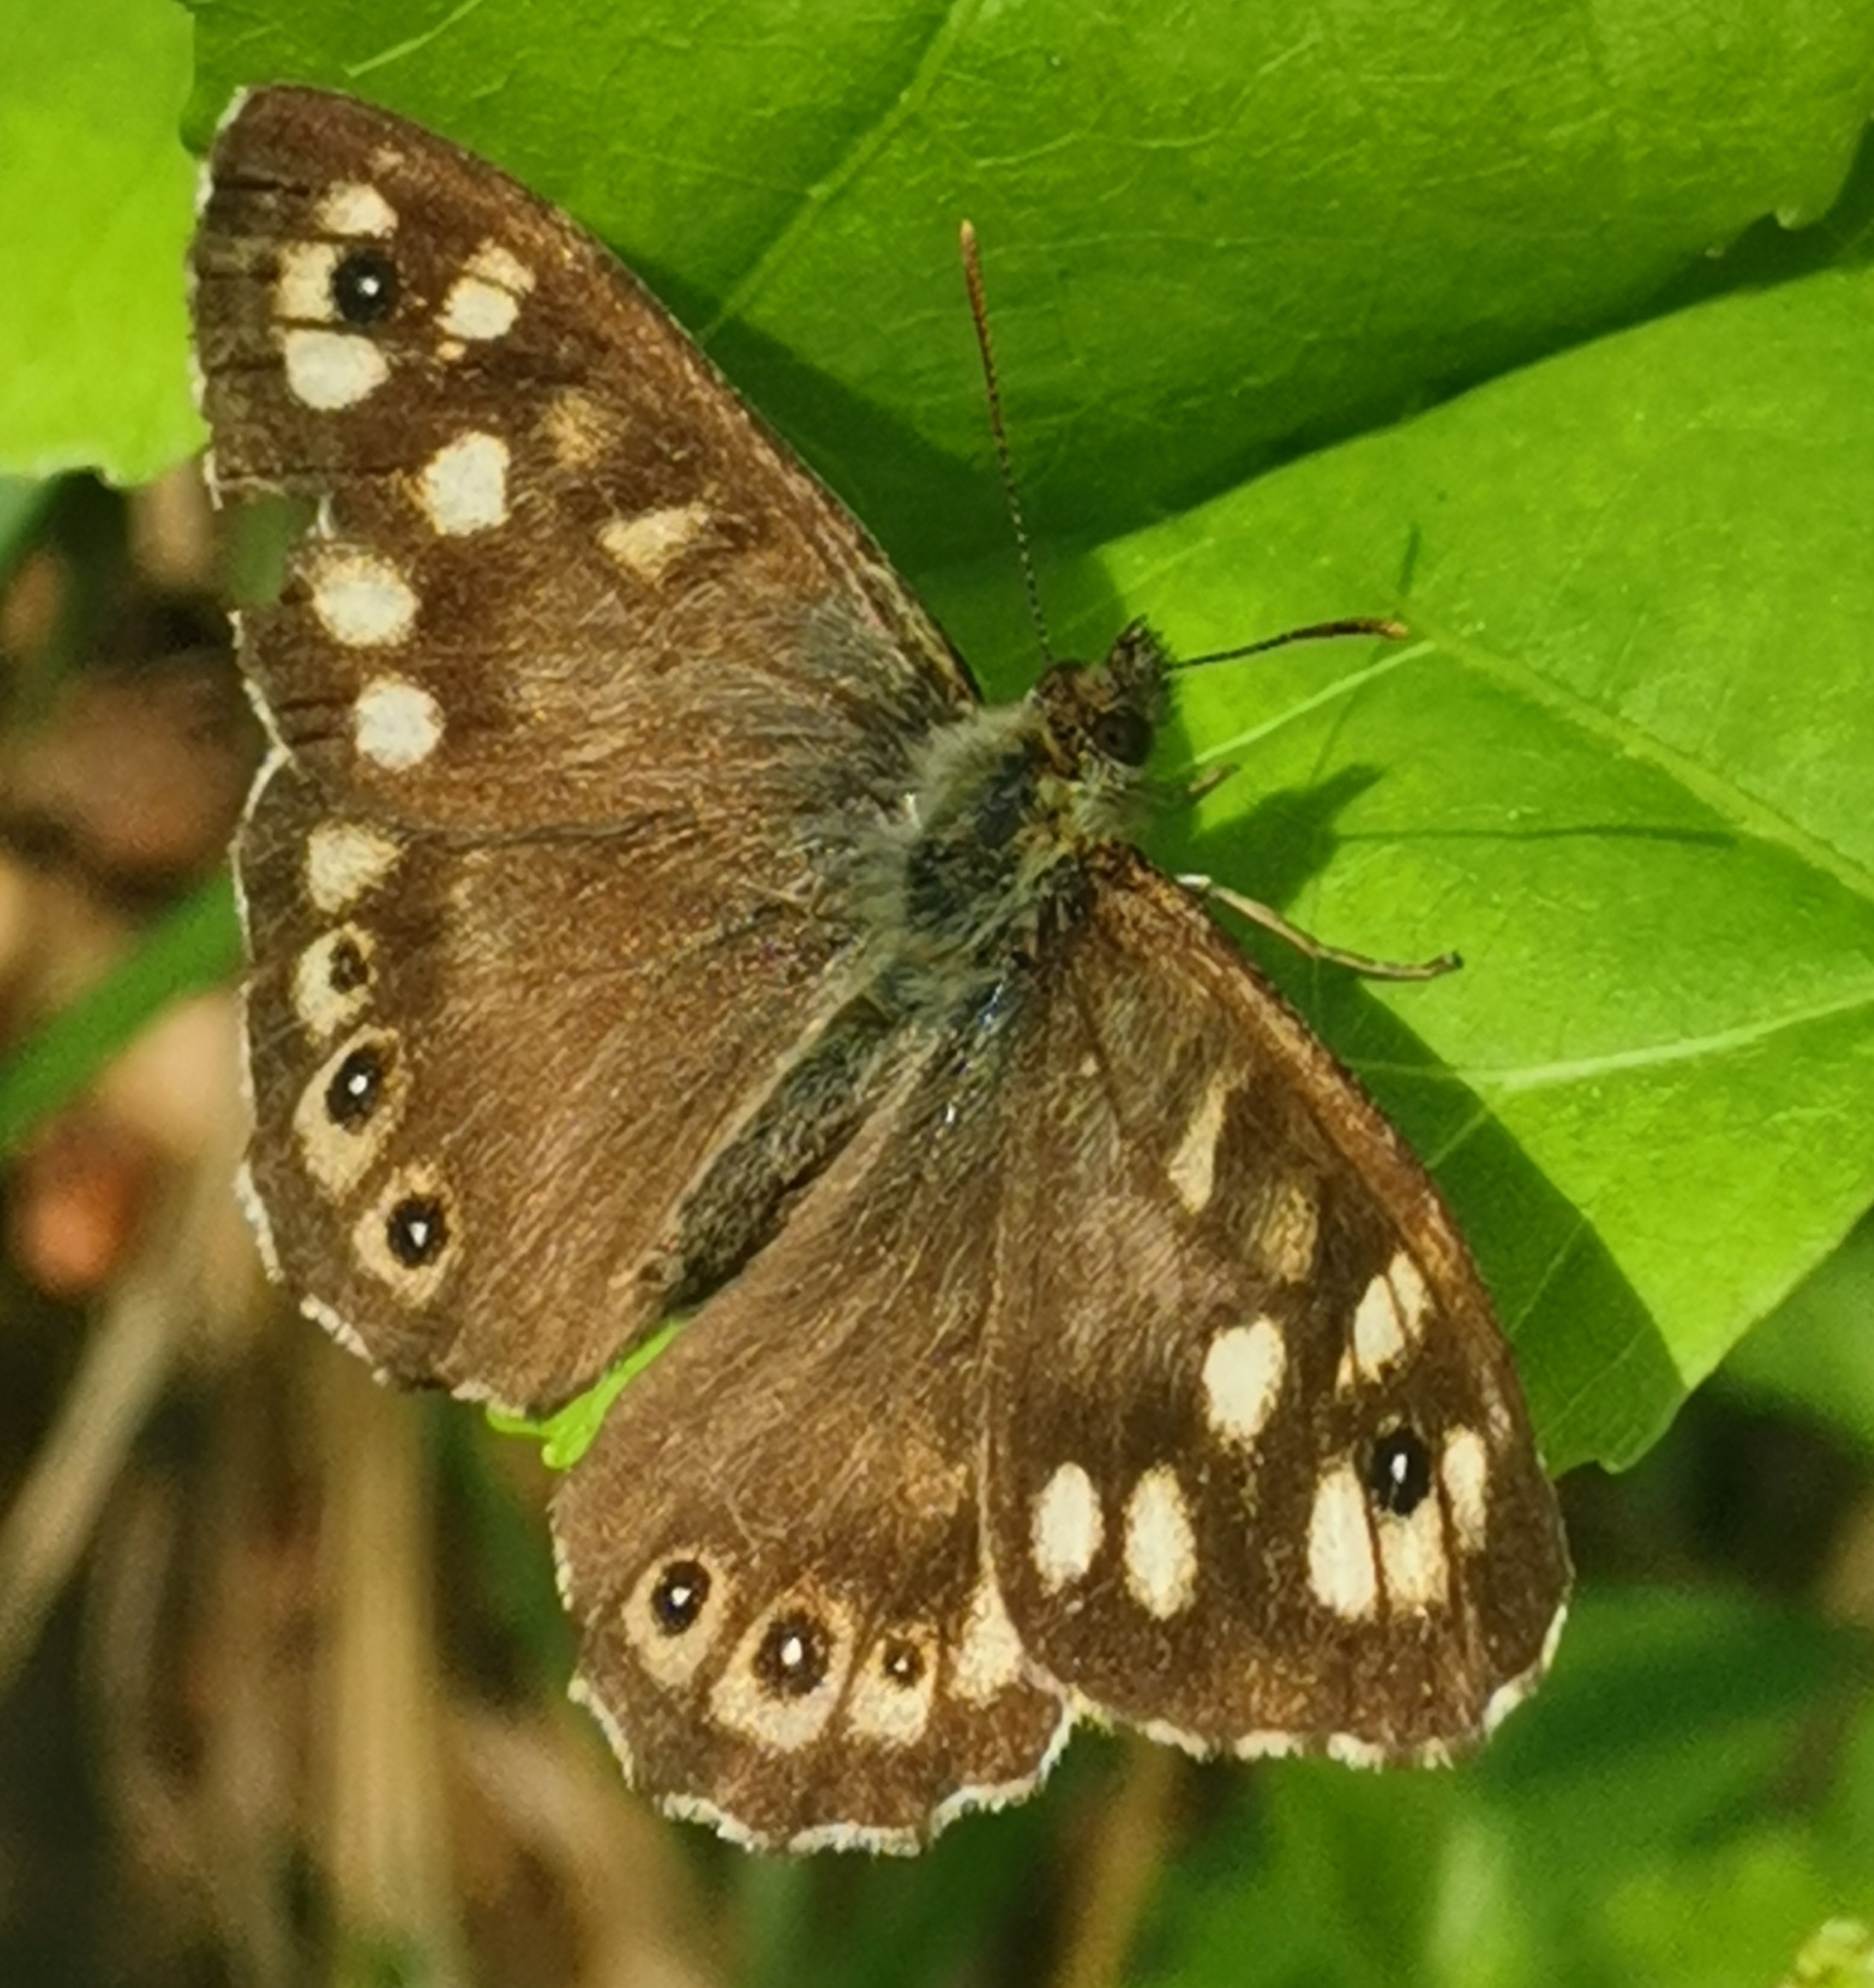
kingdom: Animalia
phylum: Arthropoda
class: Insecta
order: Lepidoptera
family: Nymphalidae
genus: Pararge
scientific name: Pararge aegeria
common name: Speckled wood
